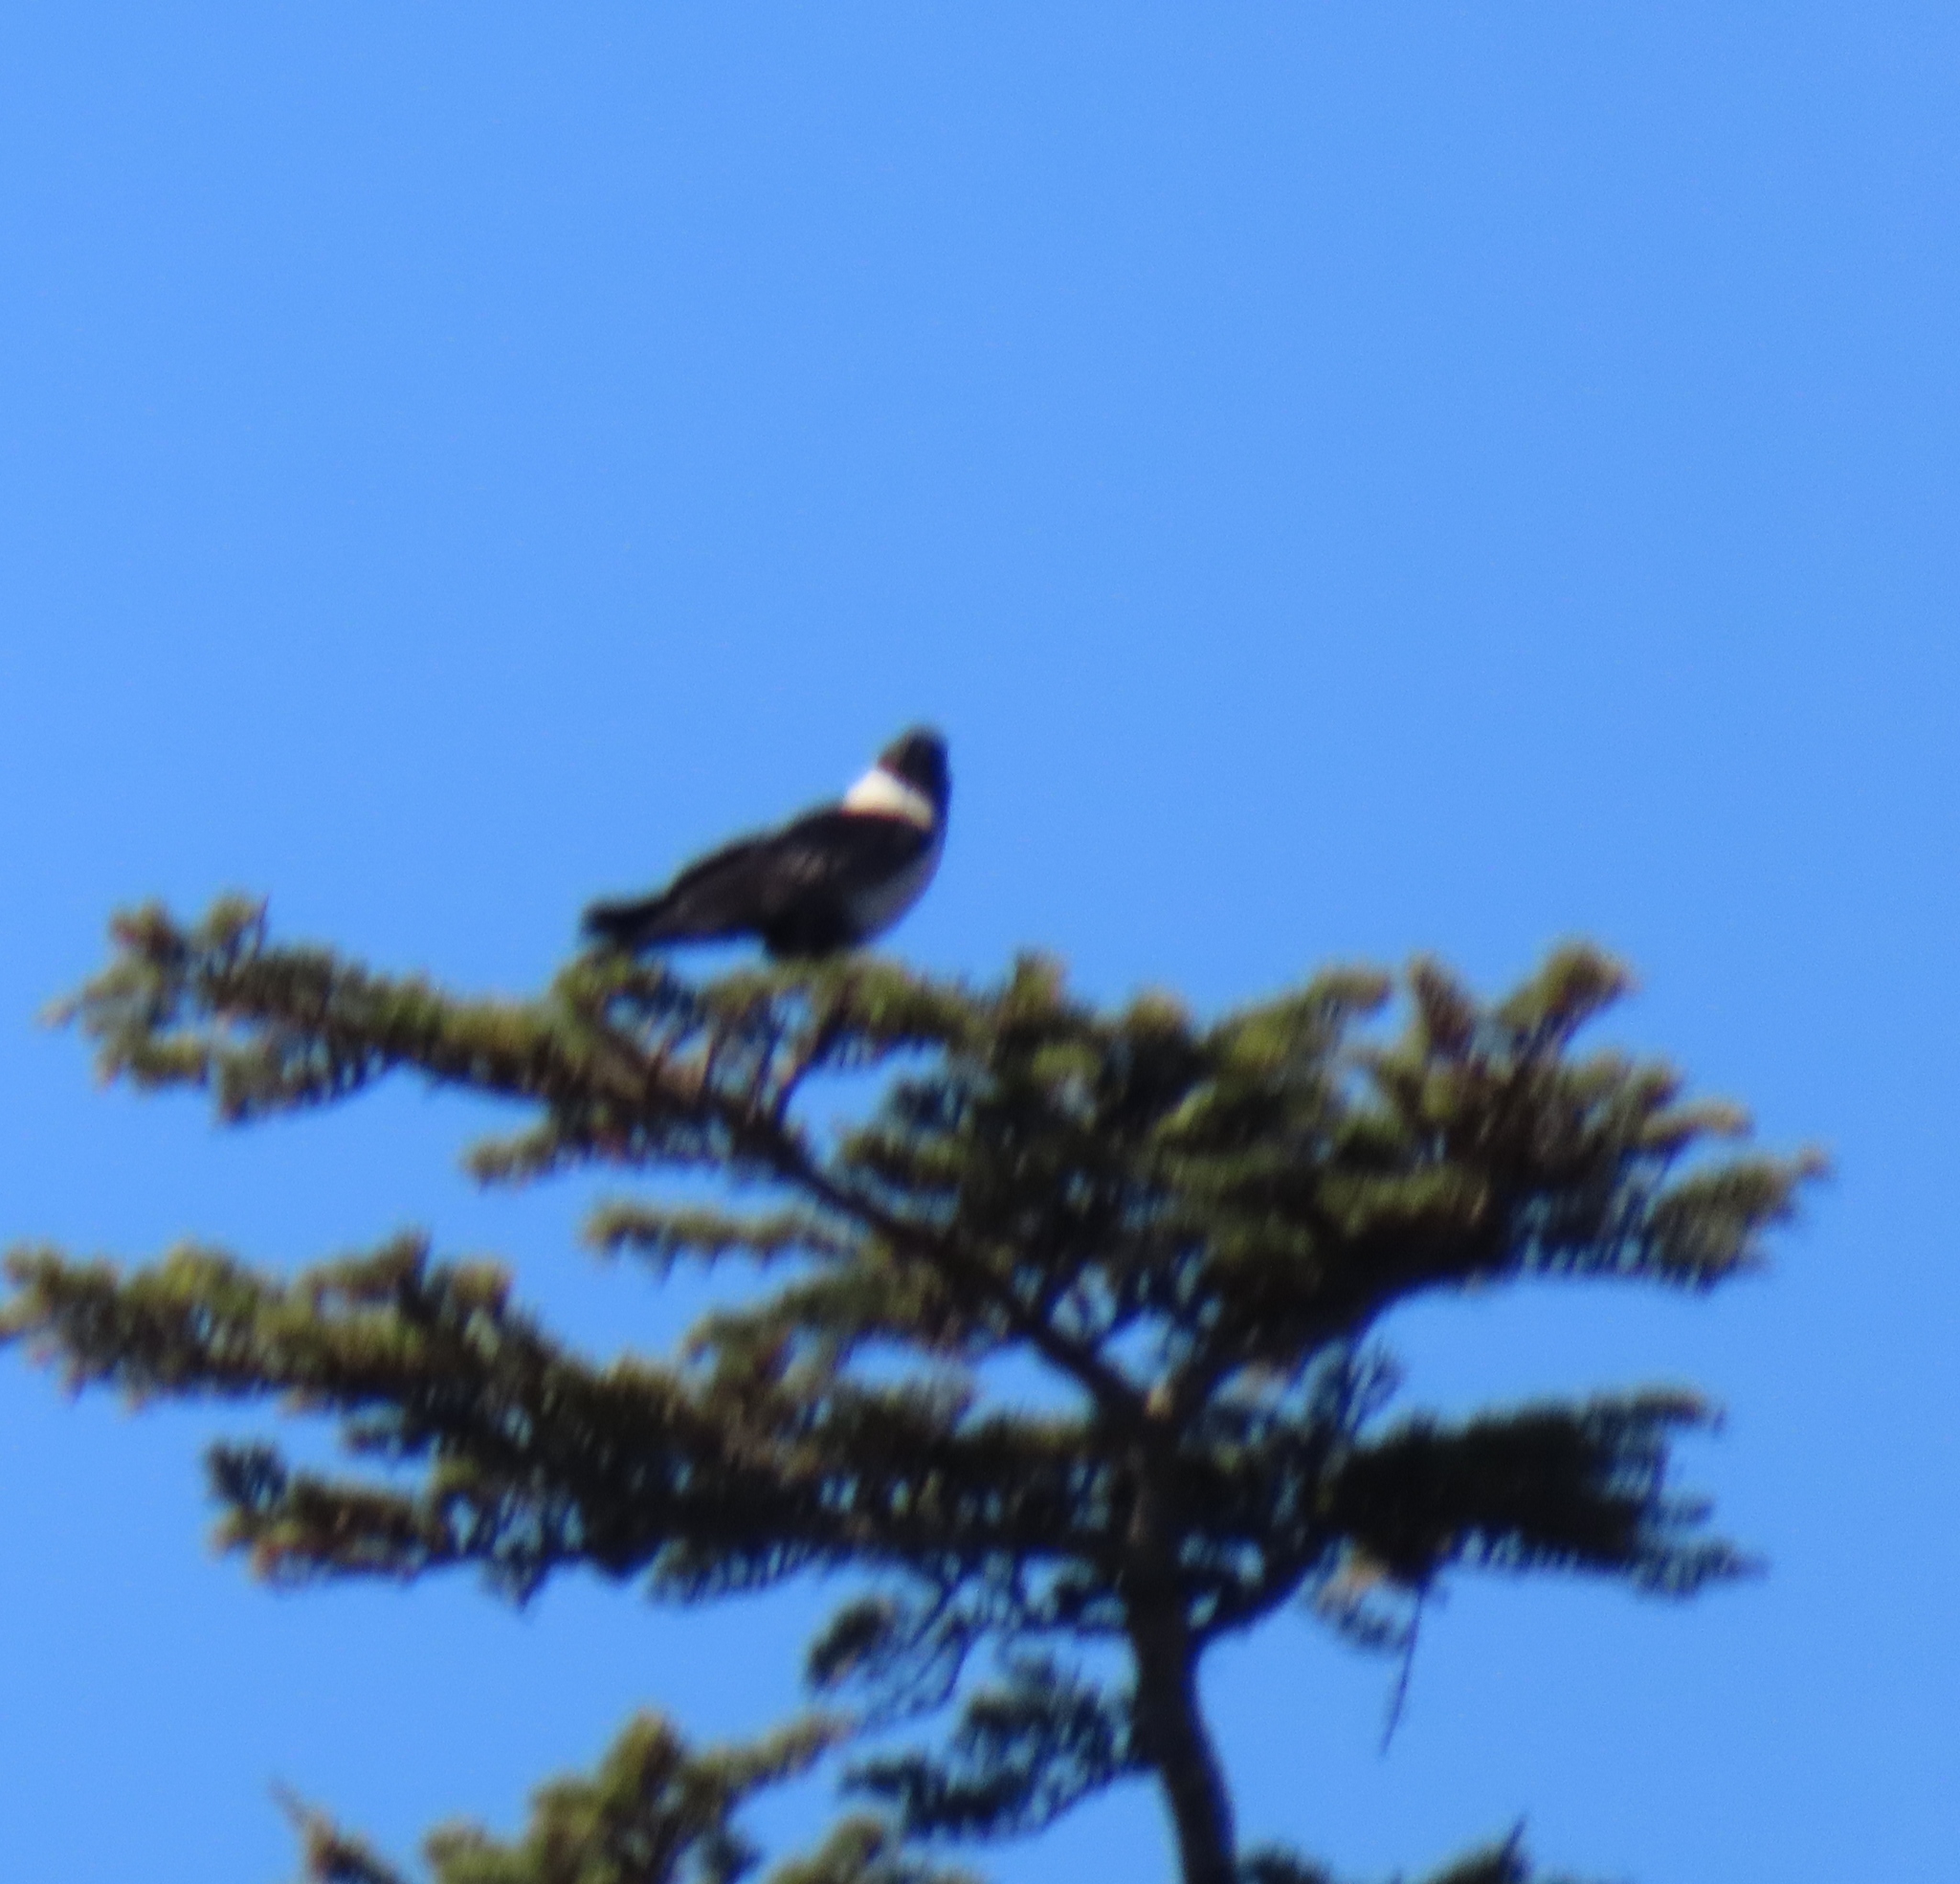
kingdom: Animalia
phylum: Chordata
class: Aves
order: Passeriformes
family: Corvidae
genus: Corvus
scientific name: Corvus albus
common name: Pied crow
